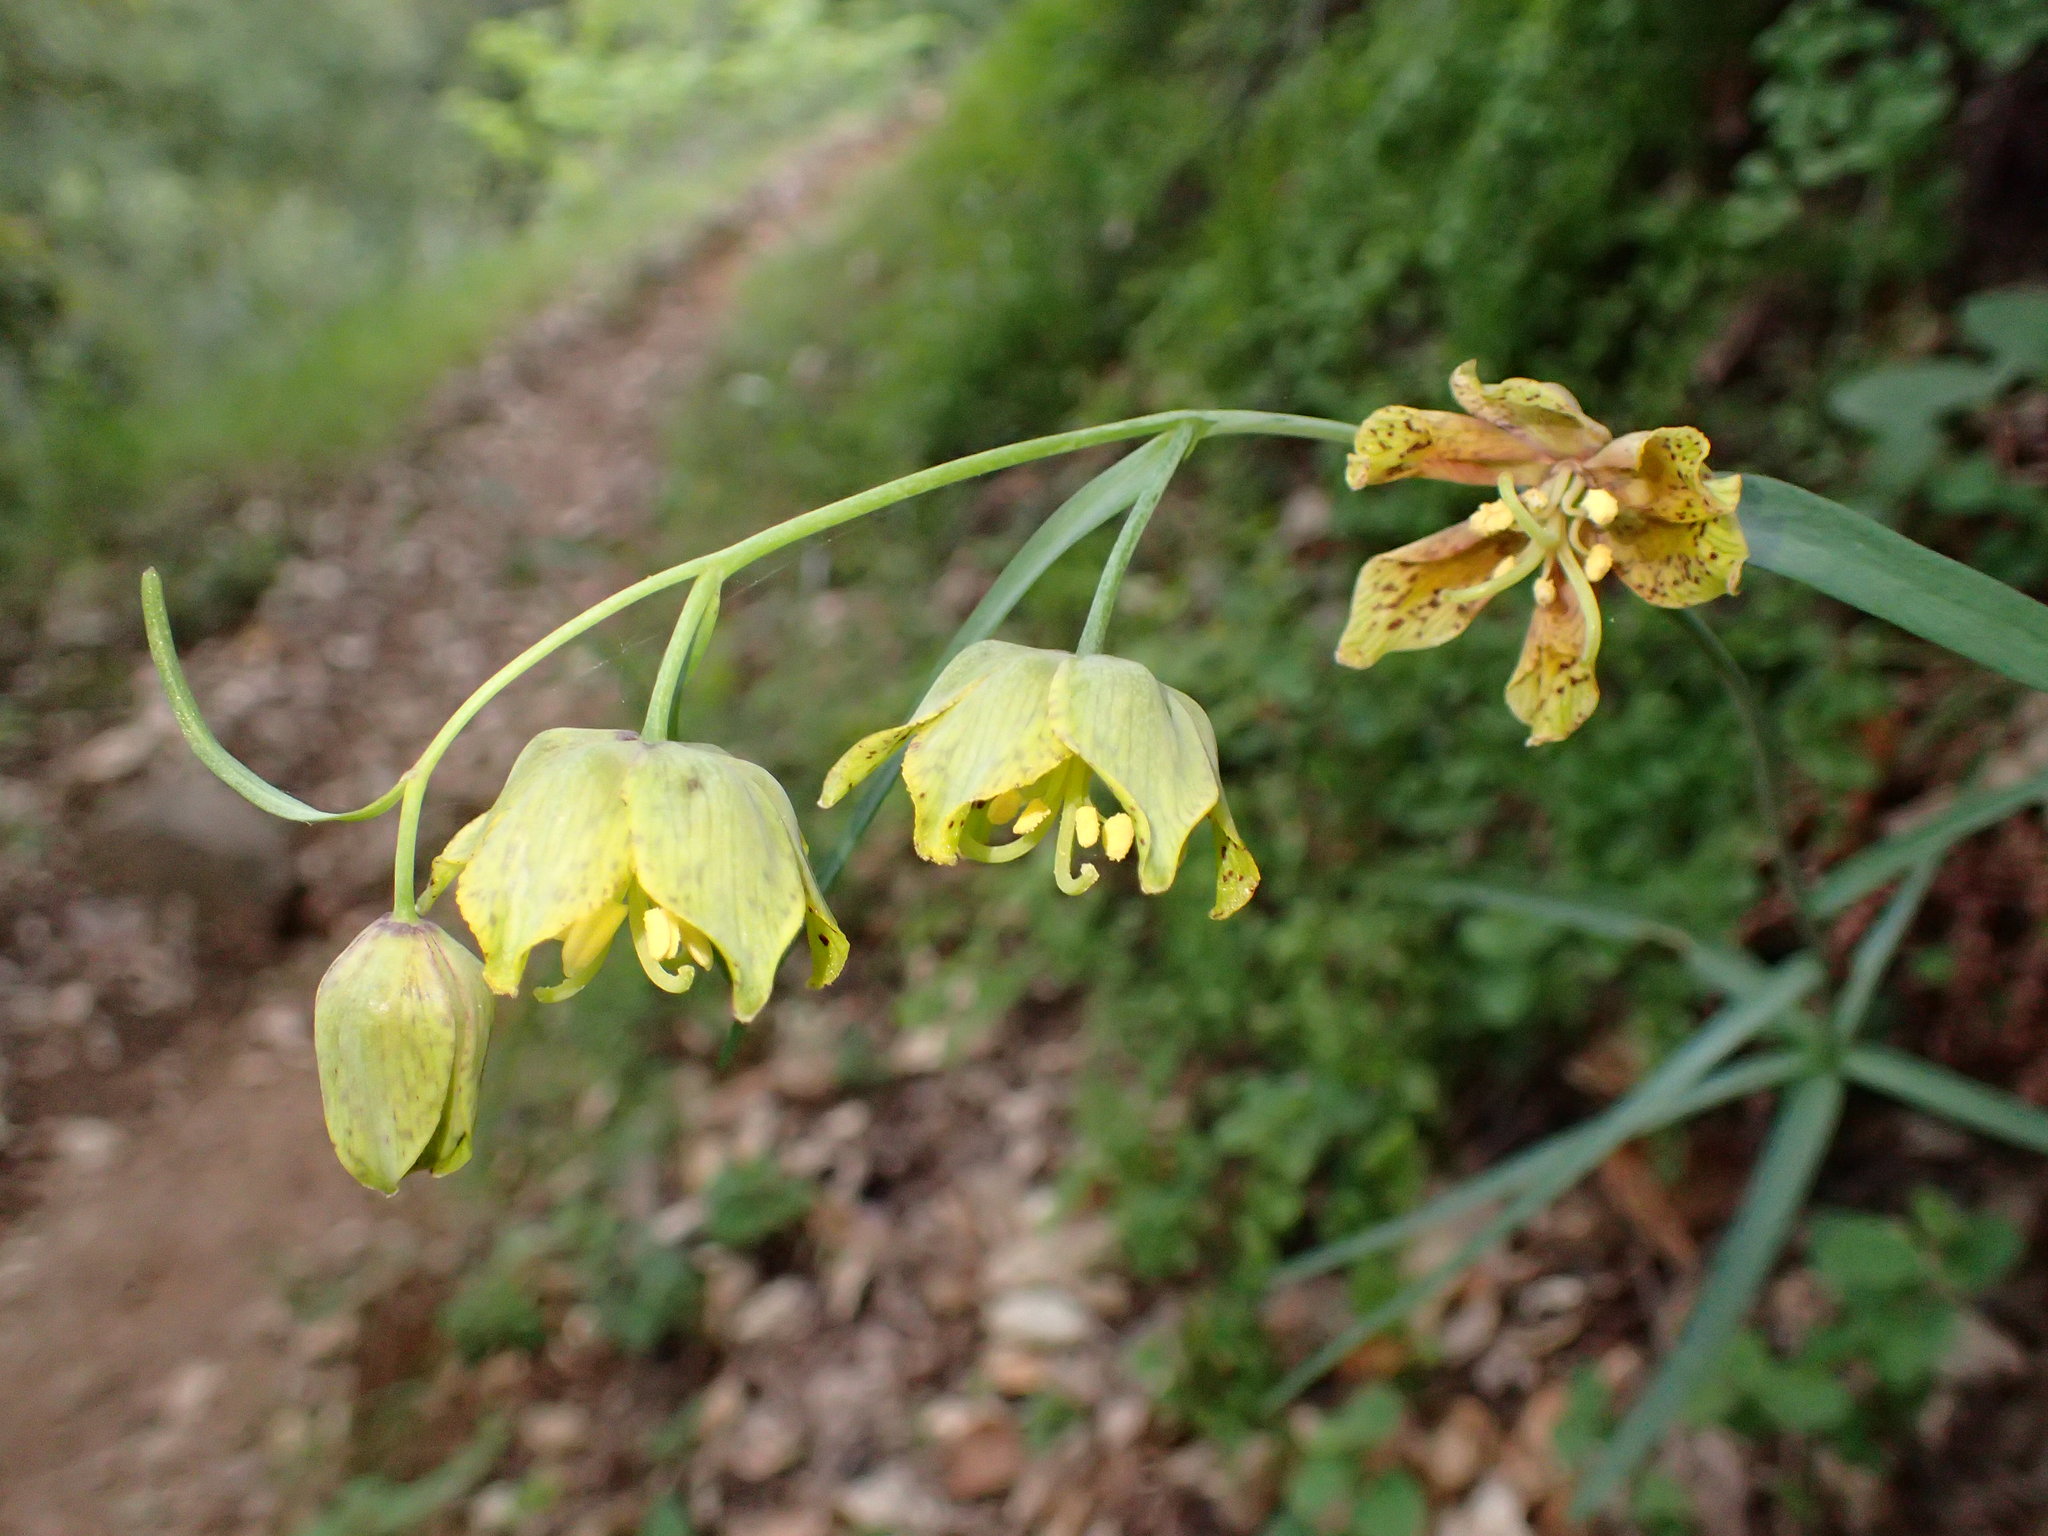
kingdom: Plantae
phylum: Tracheophyta
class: Liliopsida
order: Liliales
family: Liliaceae
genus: Fritillaria
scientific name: Fritillaria ojaiensis
